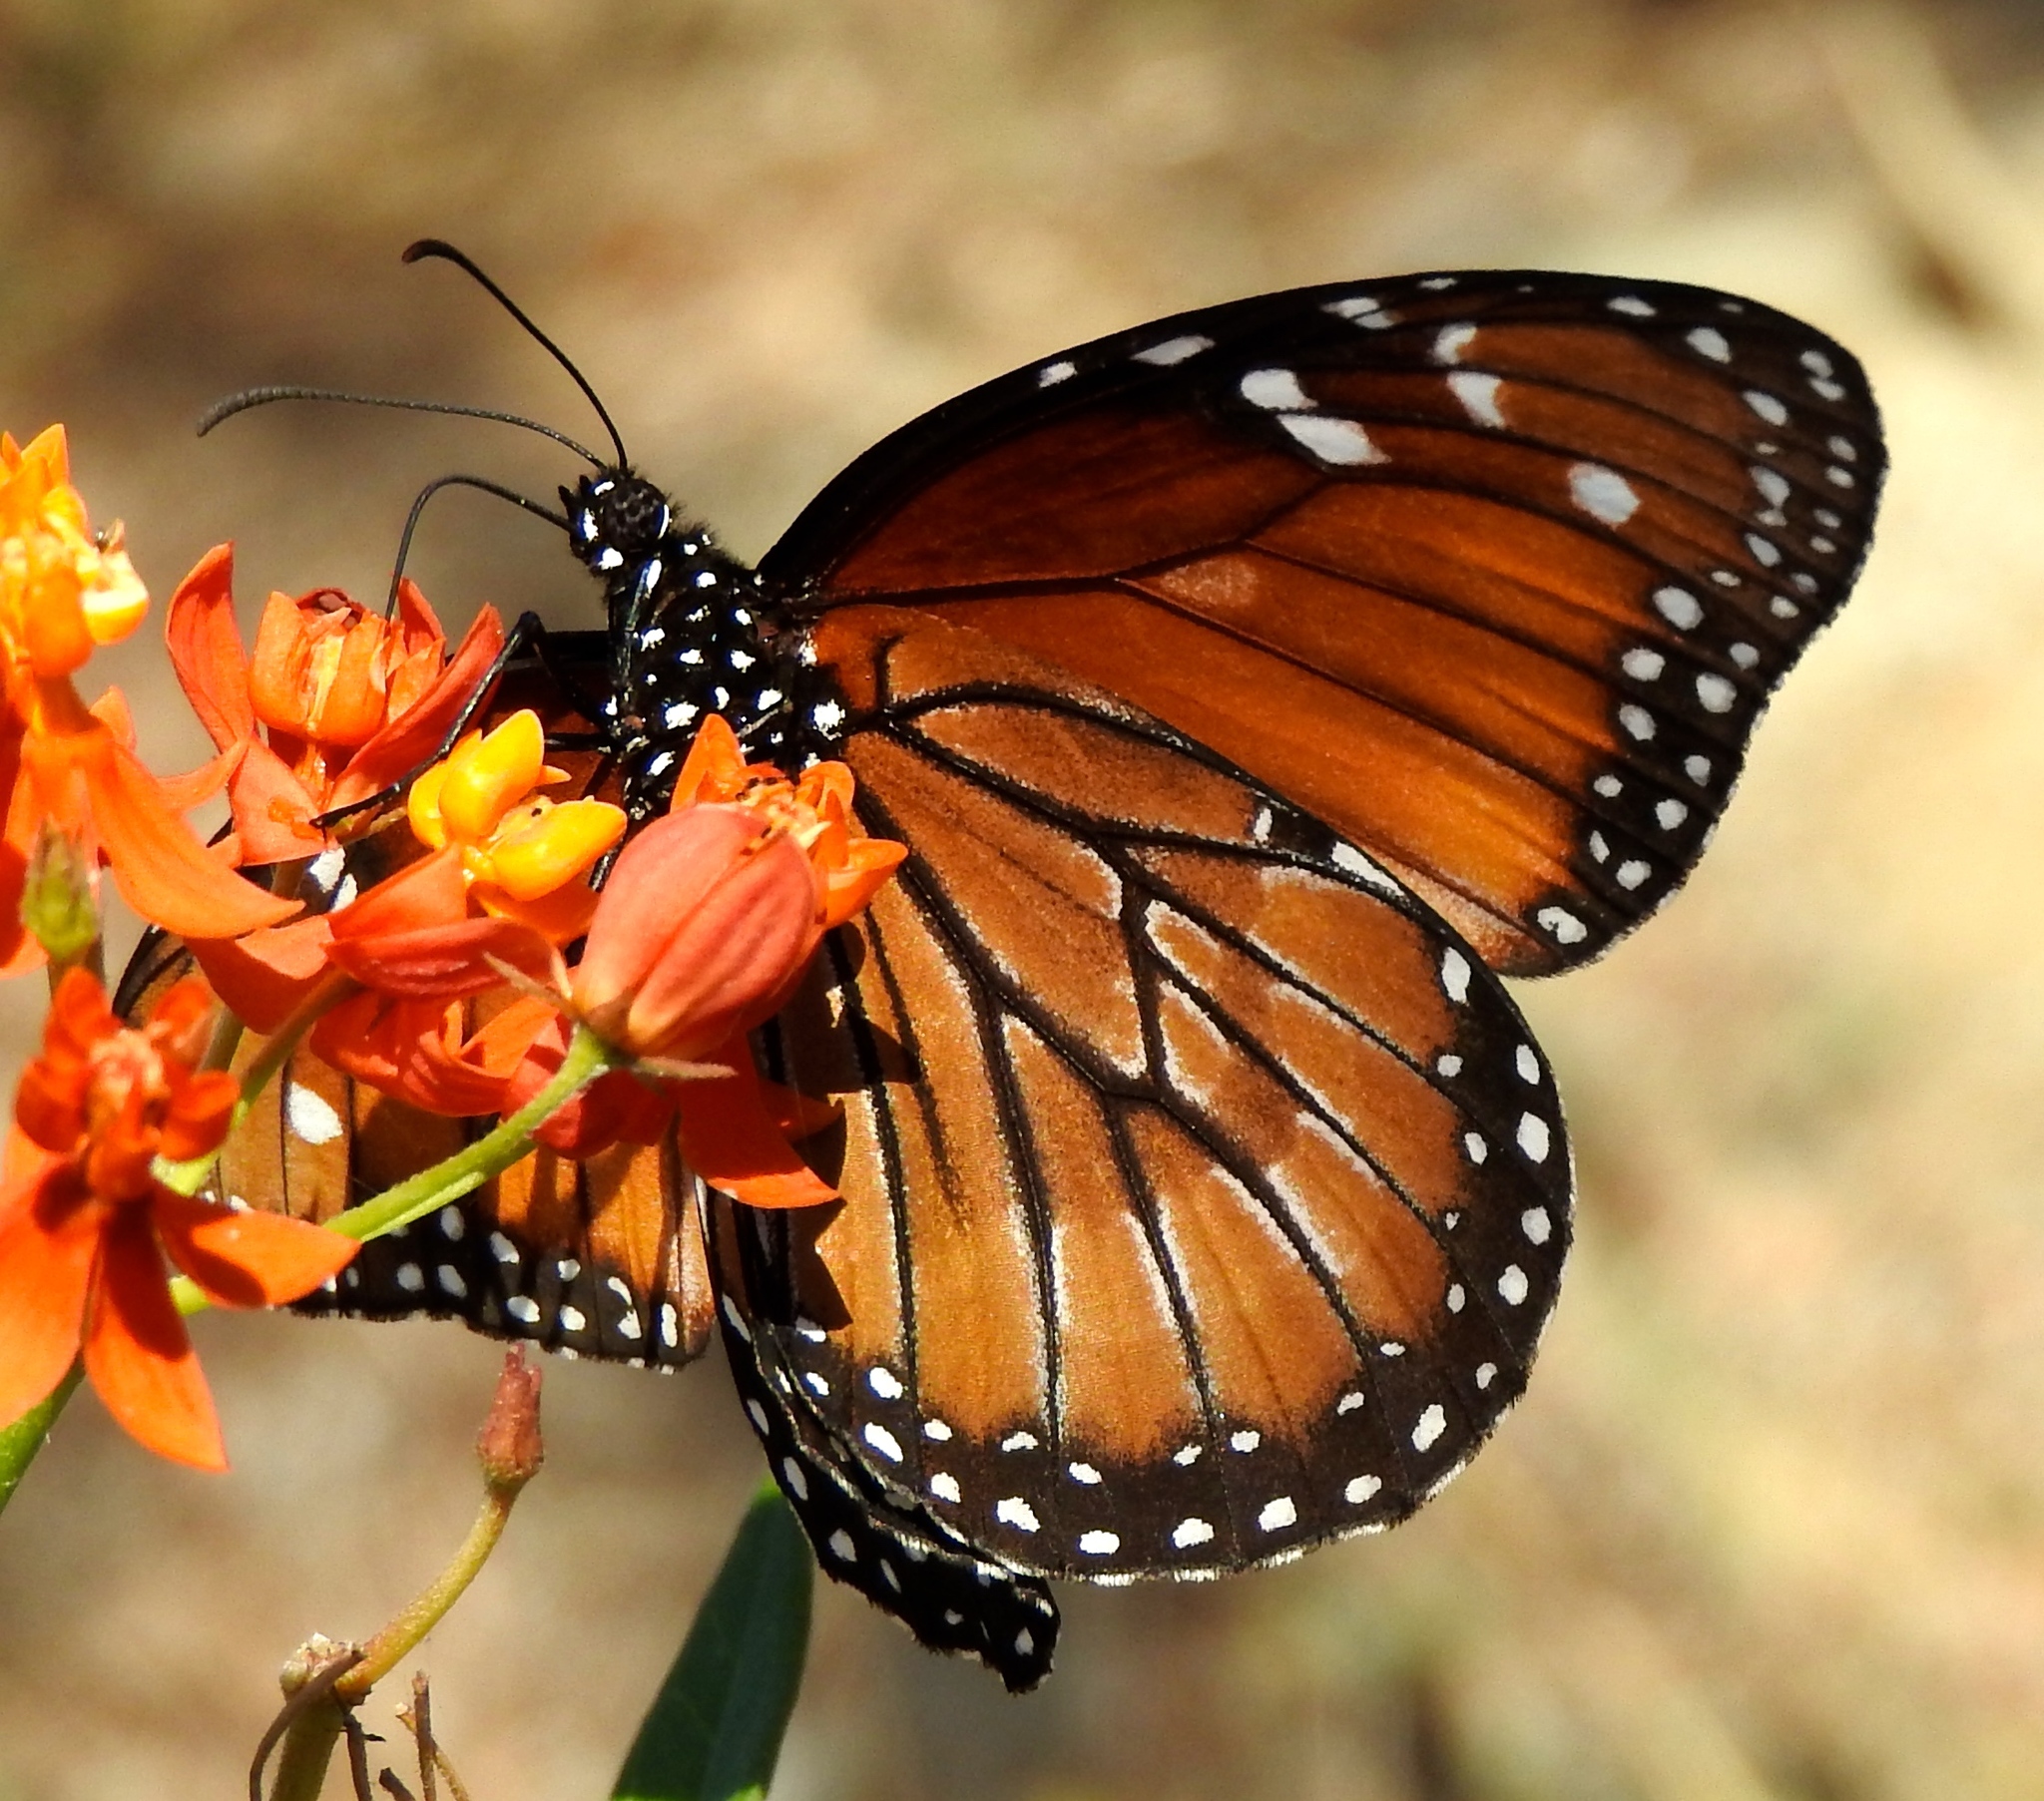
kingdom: Animalia
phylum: Arthropoda
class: Insecta
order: Lepidoptera
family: Nymphalidae
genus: Danaus
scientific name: Danaus eresimus
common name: Soldier
